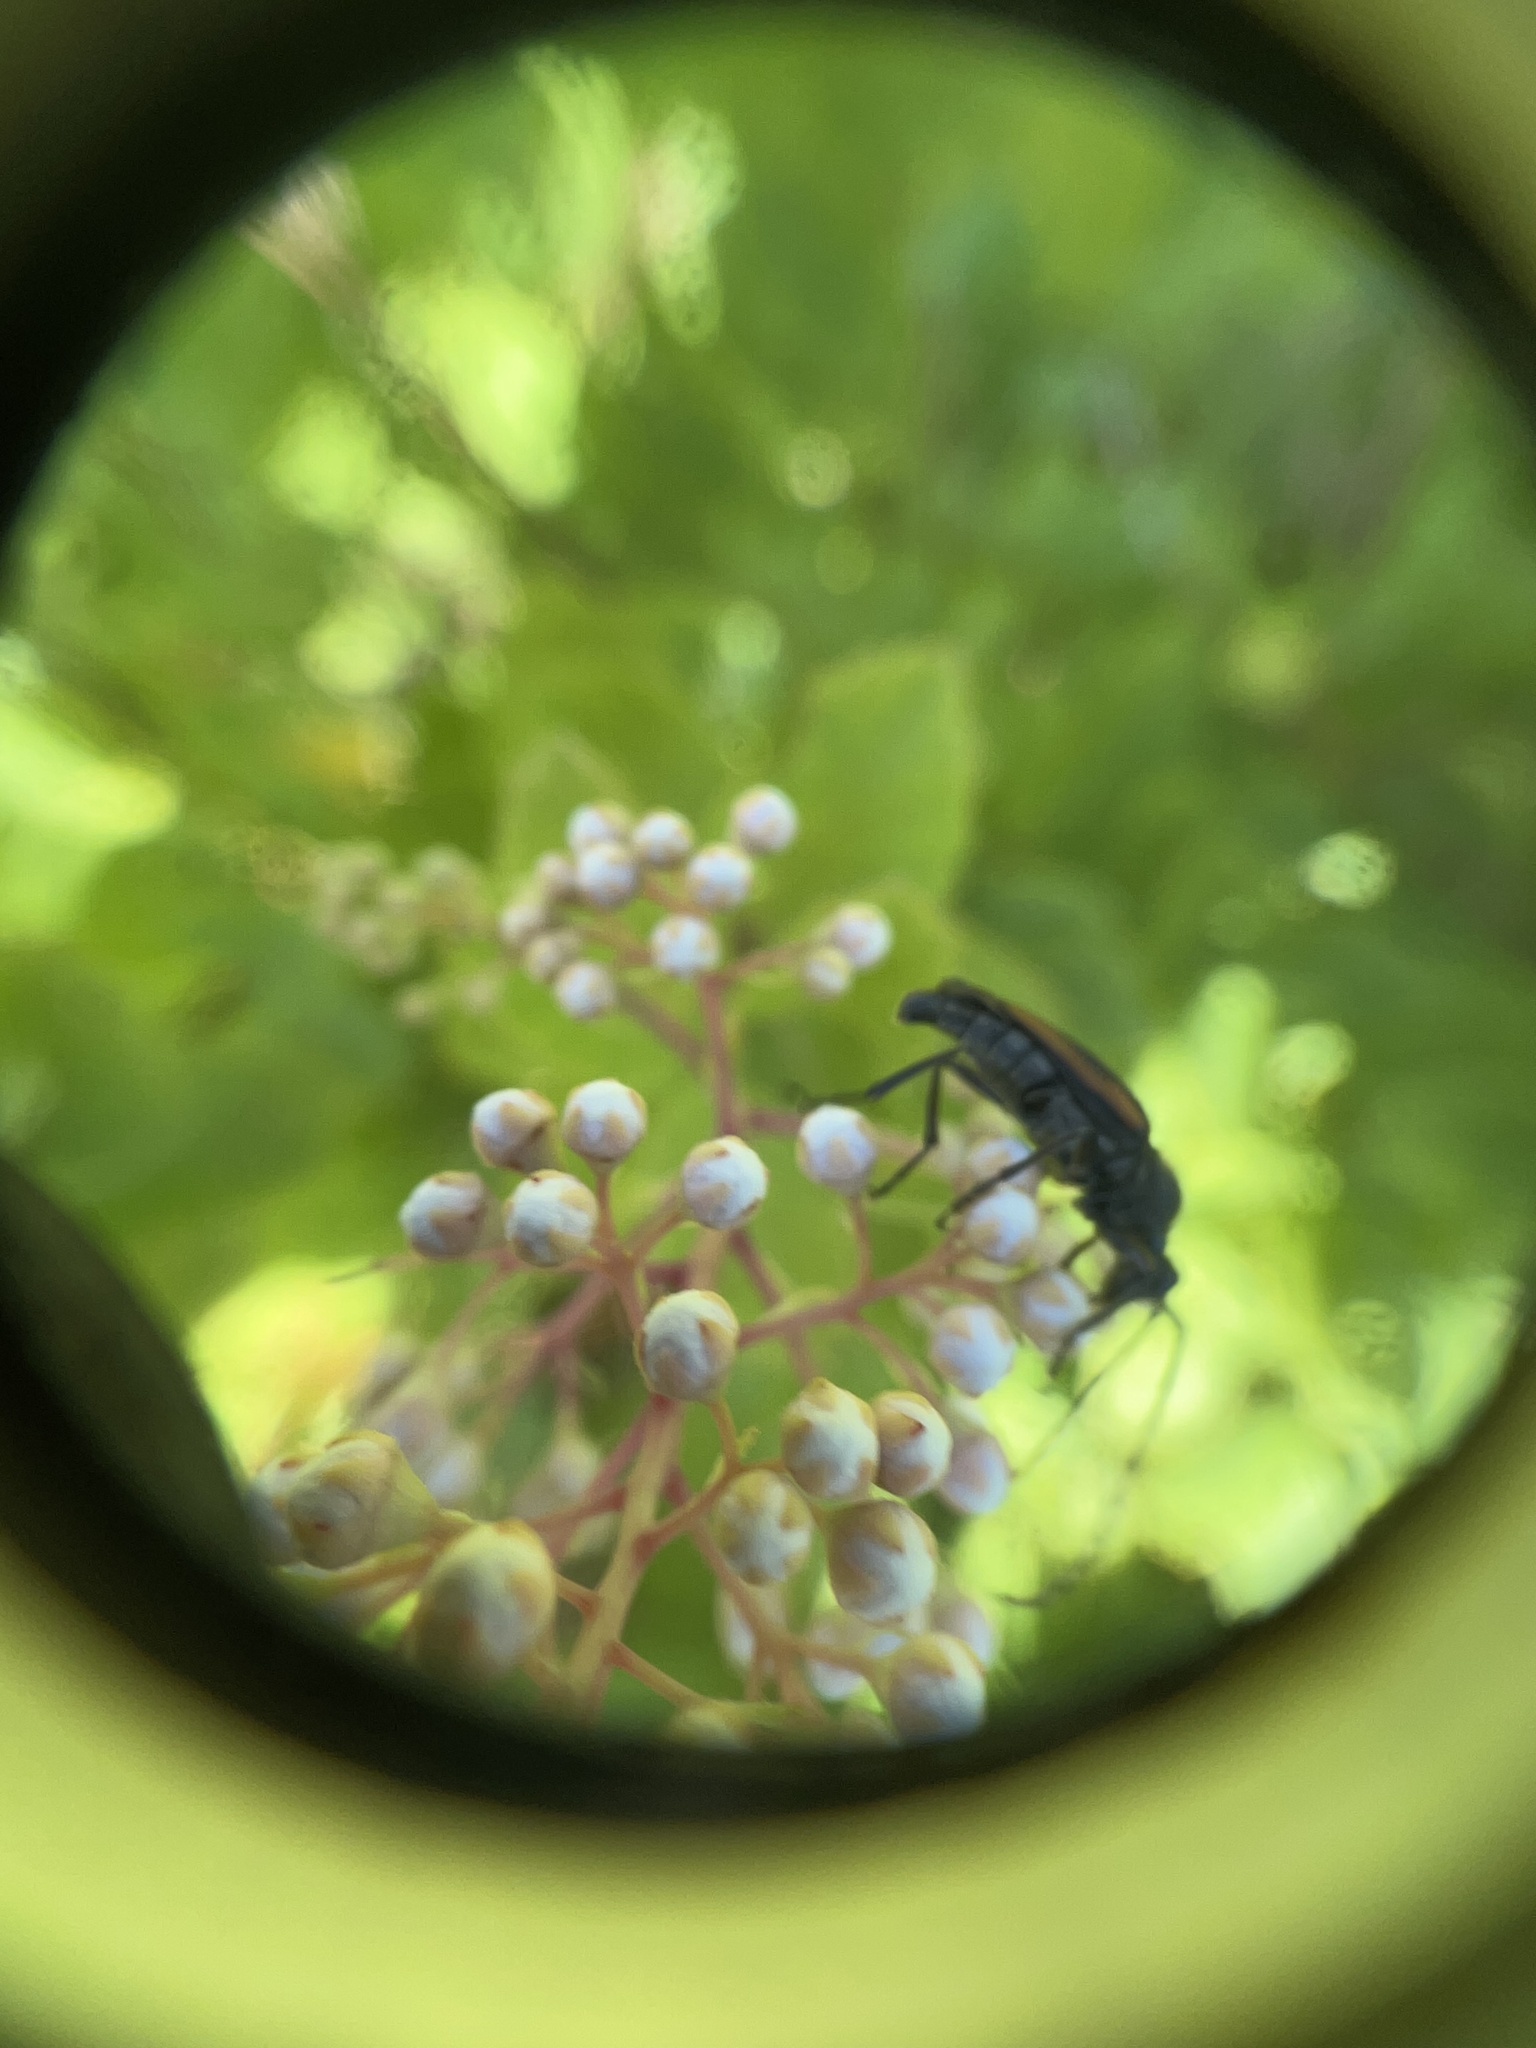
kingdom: Animalia
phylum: Arthropoda
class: Insecta
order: Coleoptera
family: Cerambycidae
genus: Strangalepta
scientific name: Strangalepta abbreviata
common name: Strangalepta flower longhorn beetle
